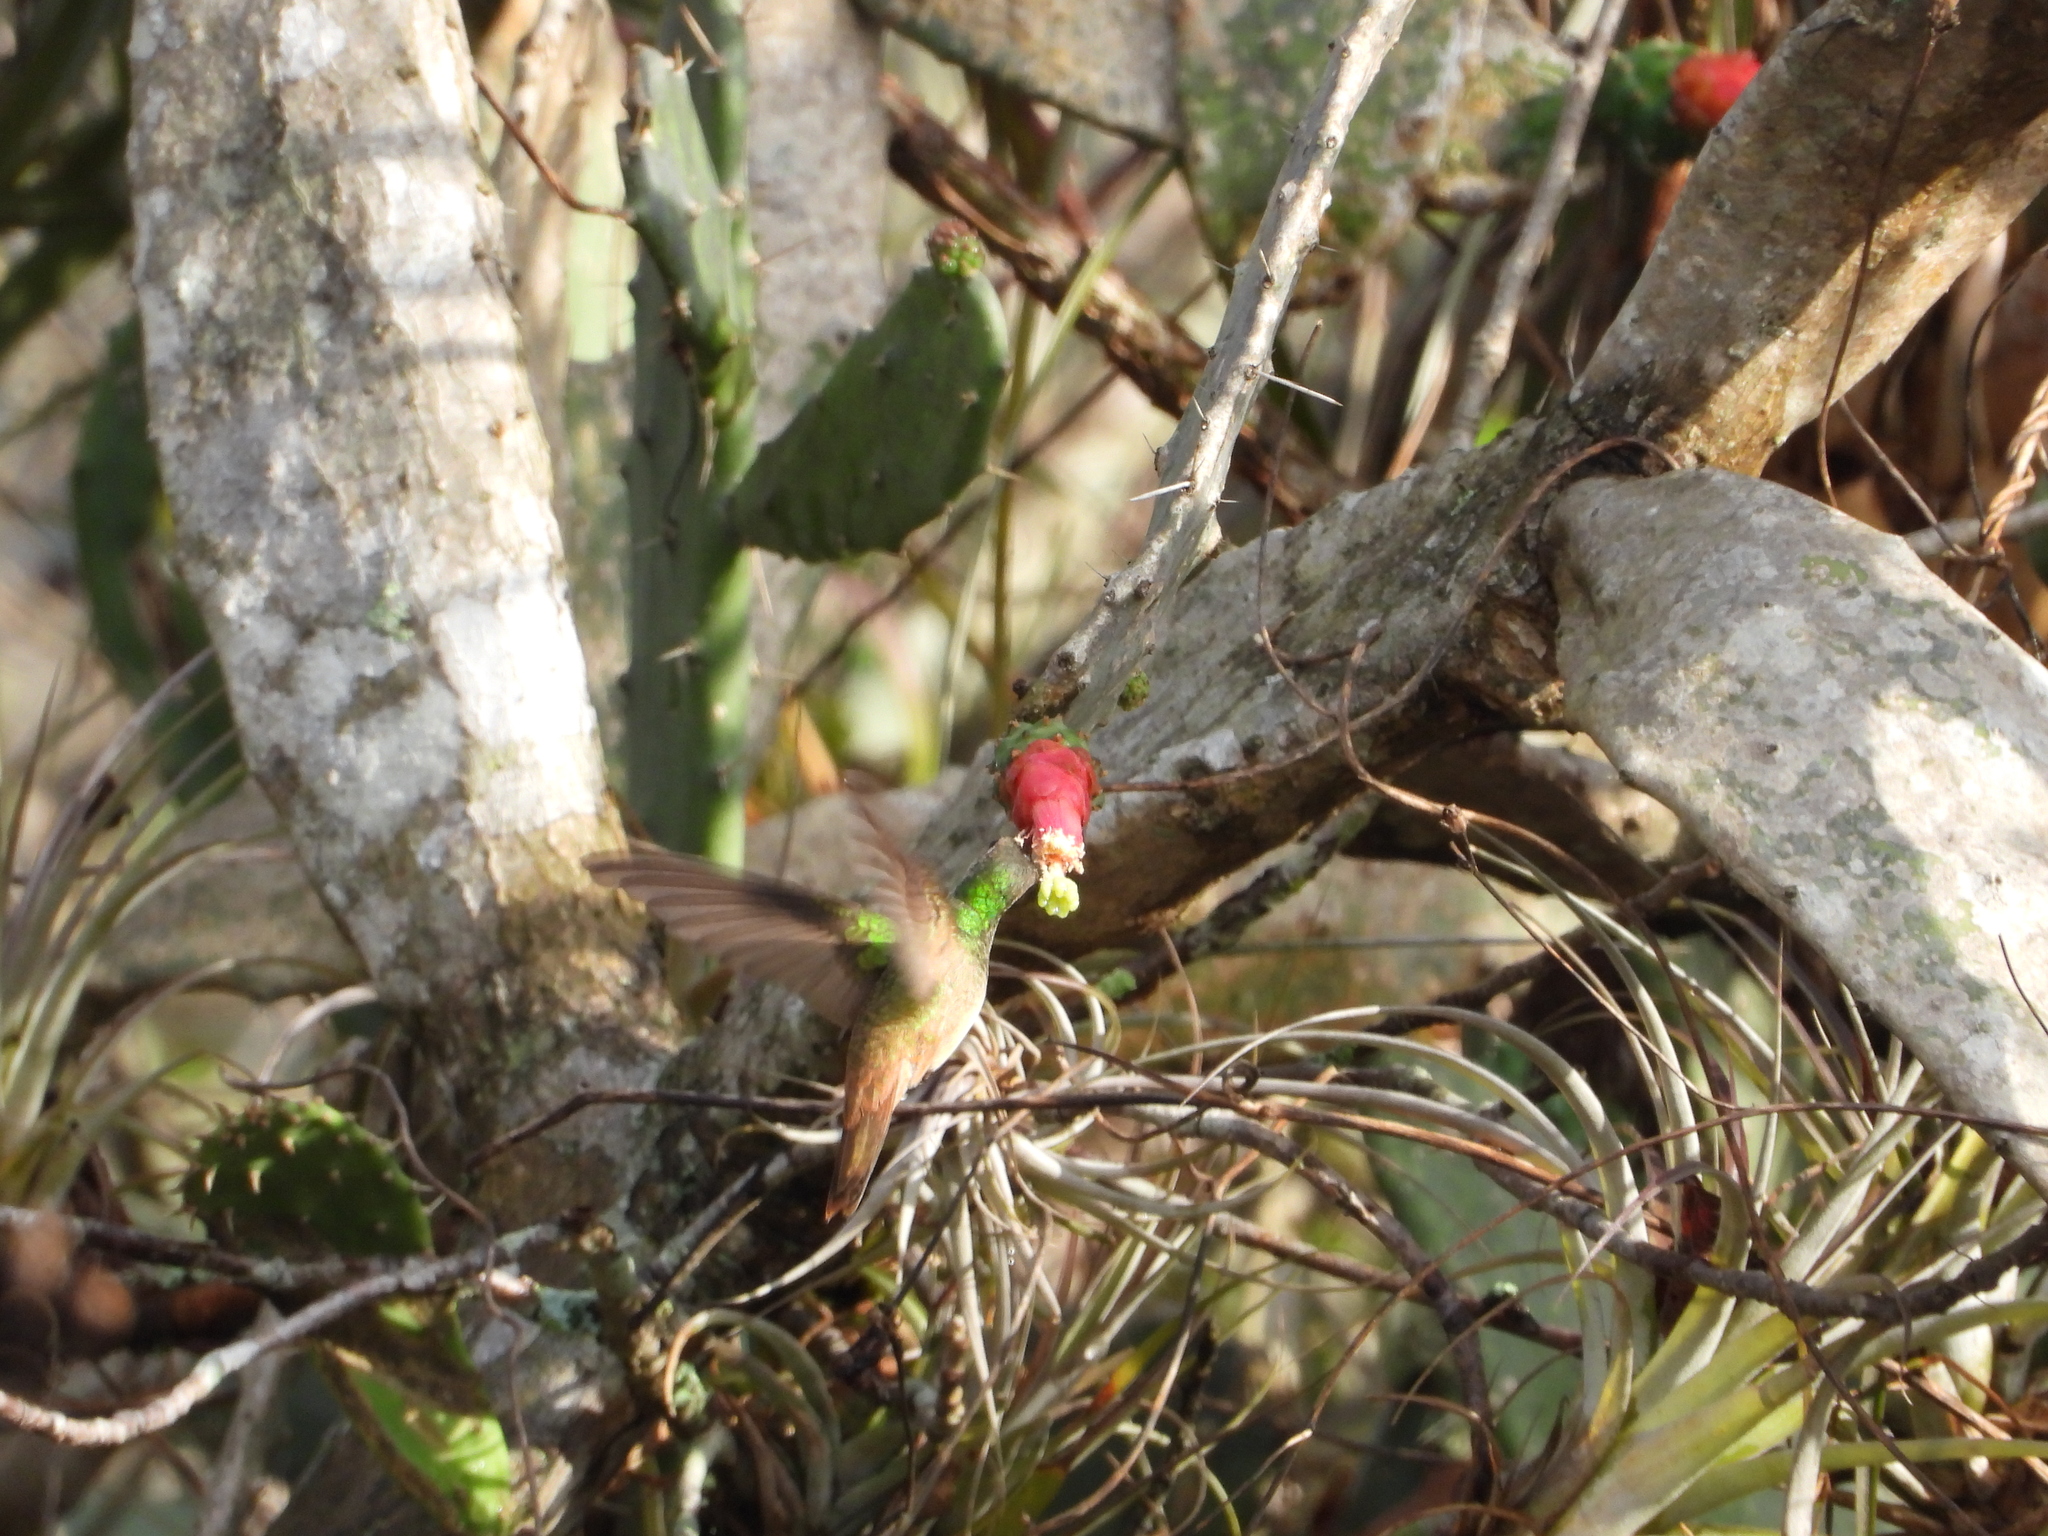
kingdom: Animalia
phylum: Chordata
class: Aves
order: Apodiformes
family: Trochilidae
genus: Amazilia
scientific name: Amazilia yucatanensis
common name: Buff-bellied hummingbird
